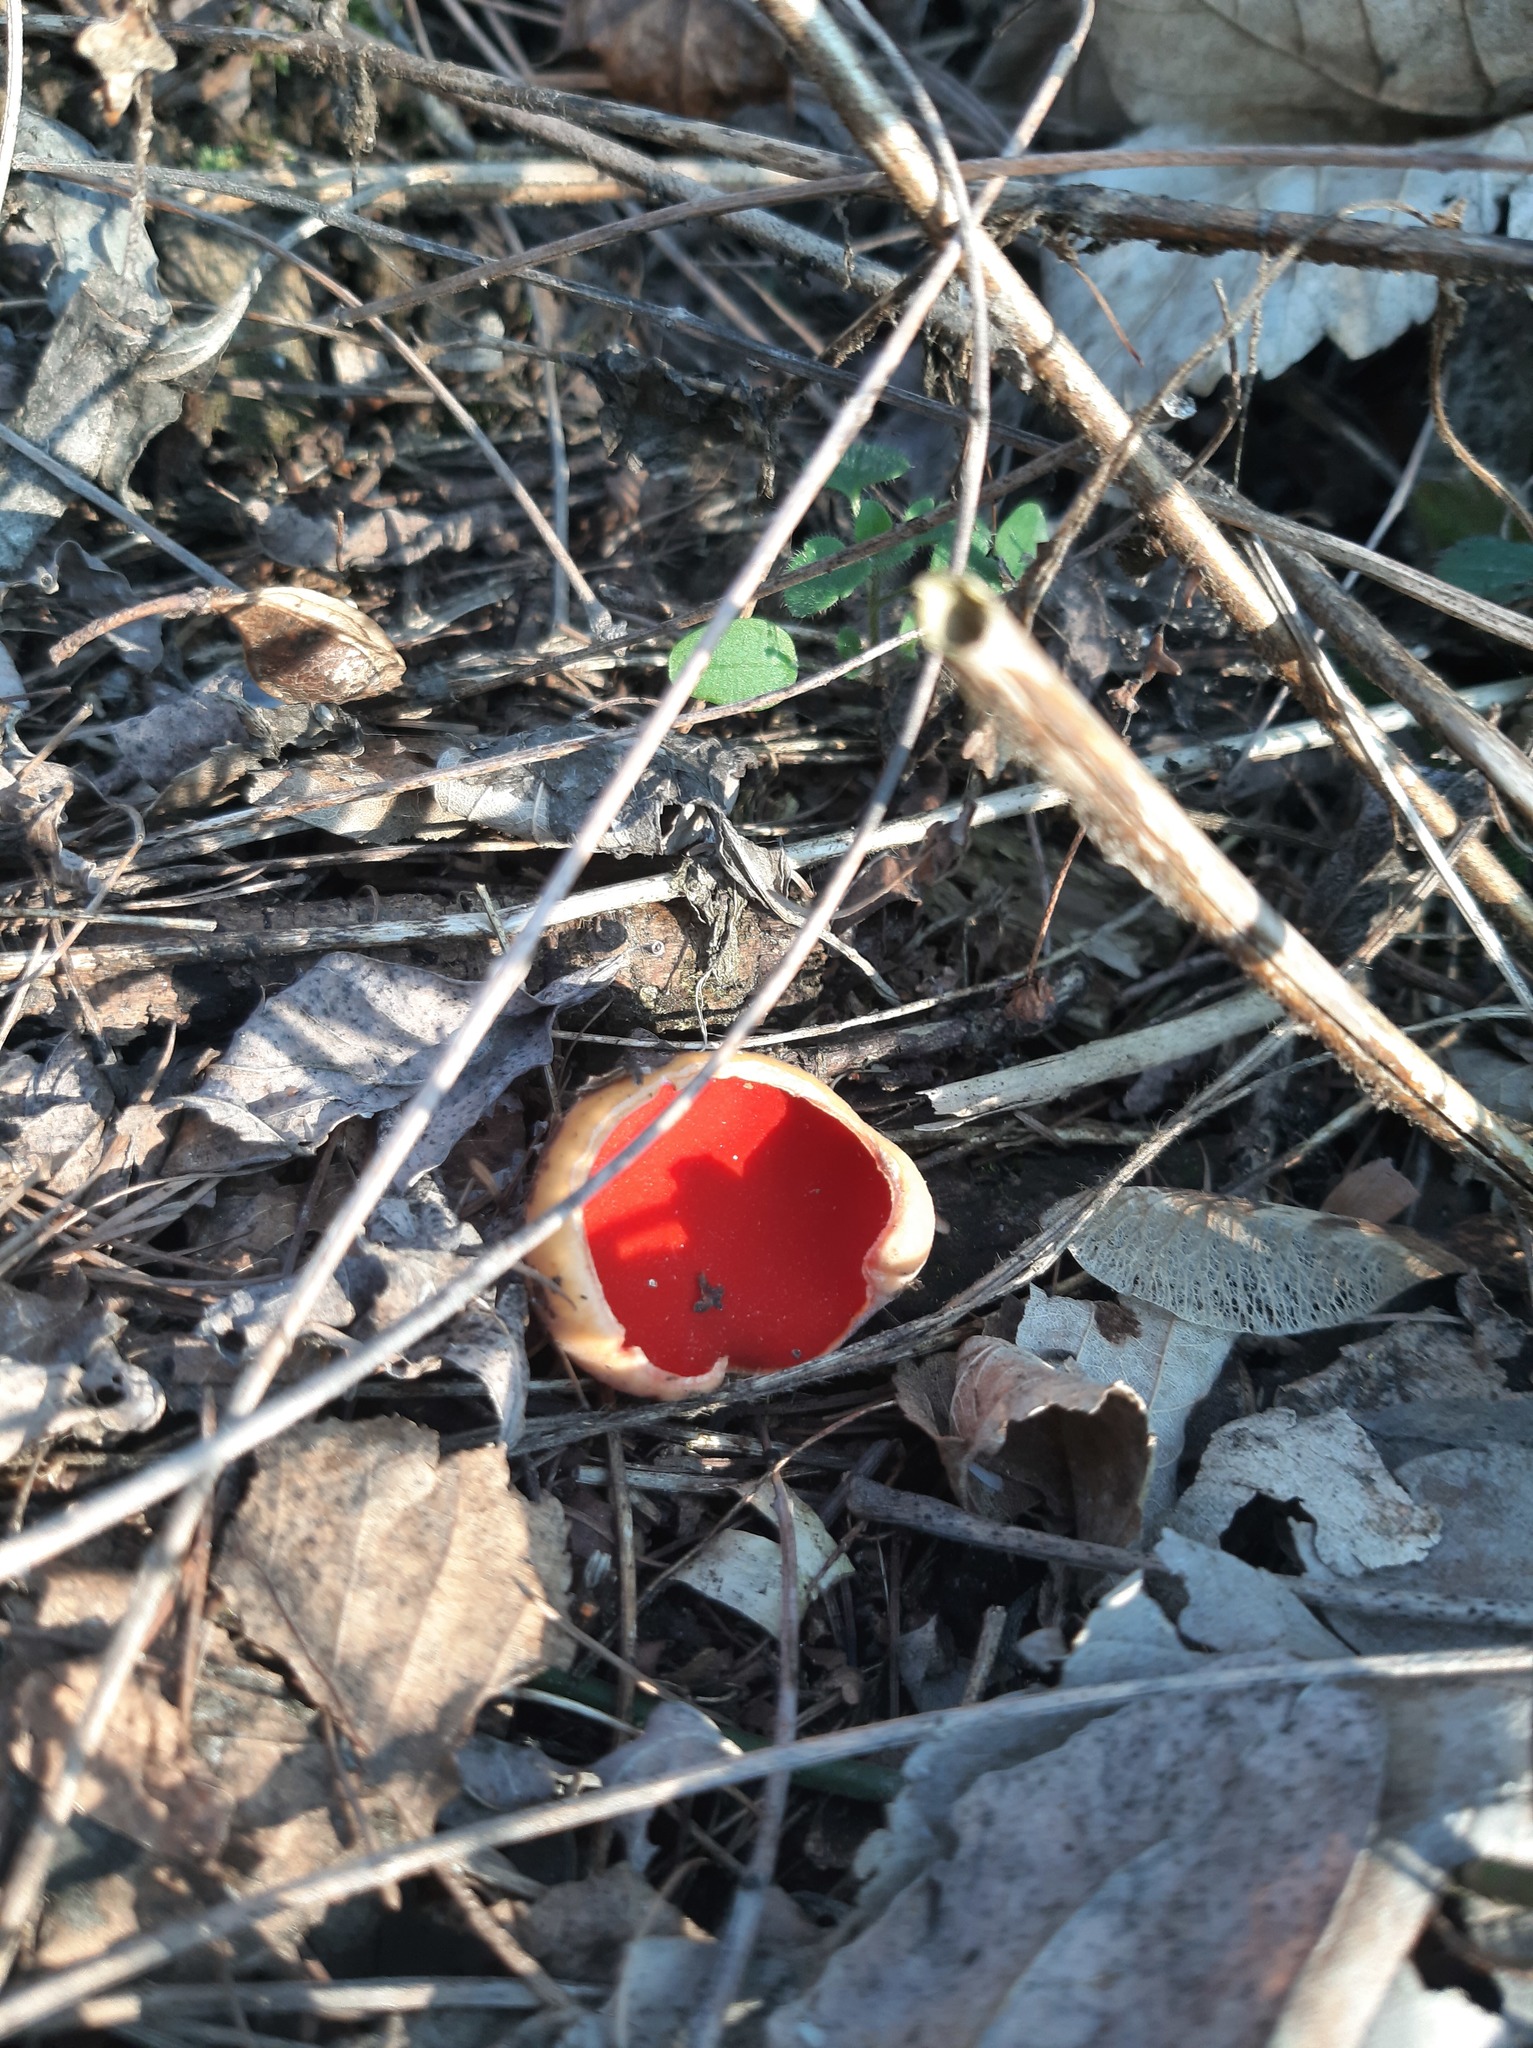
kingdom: Fungi
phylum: Ascomycota
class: Pezizomycetes
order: Pezizales
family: Sarcoscyphaceae
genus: Sarcoscypha
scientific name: Sarcoscypha
